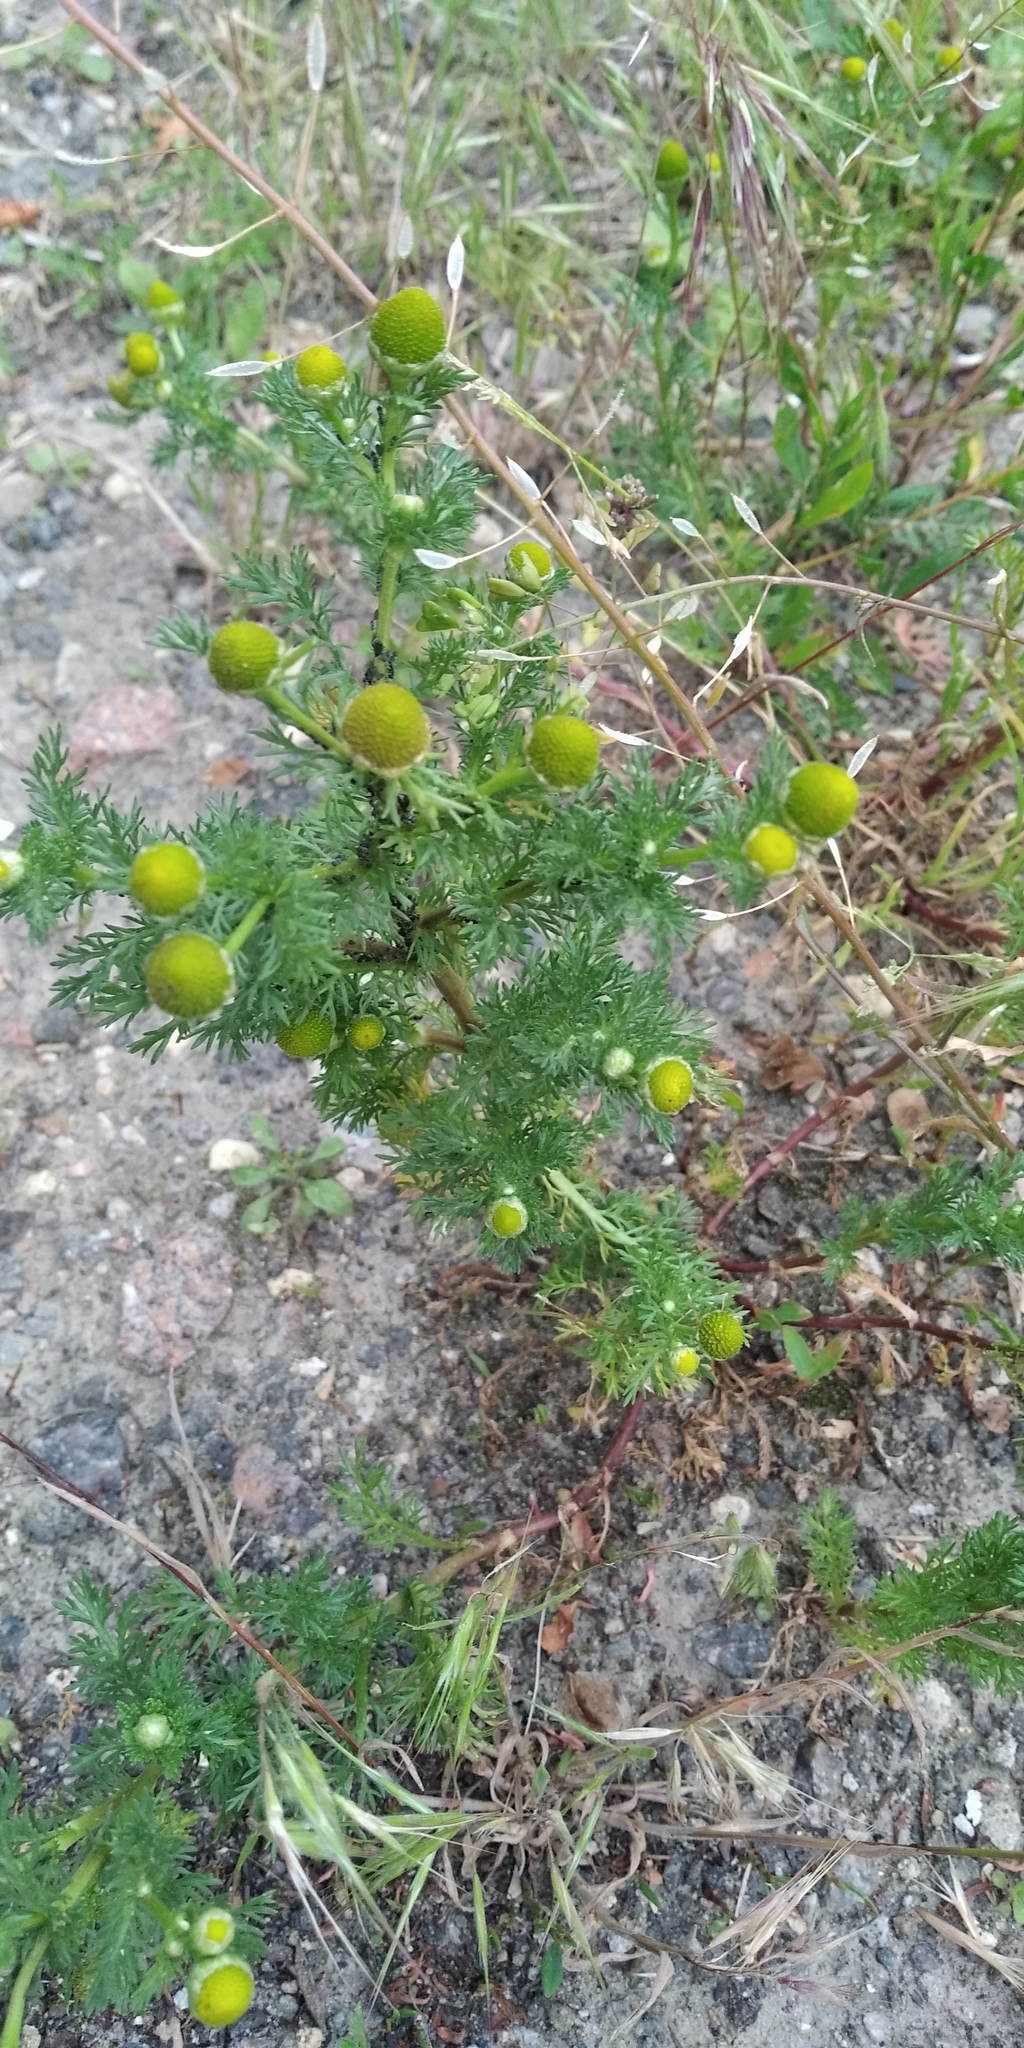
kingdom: Plantae
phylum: Tracheophyta
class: Magnoliopsida
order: Asterales
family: Asteraceae
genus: Matricaria
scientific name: Matricaria discoidea
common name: Disc mayweed
